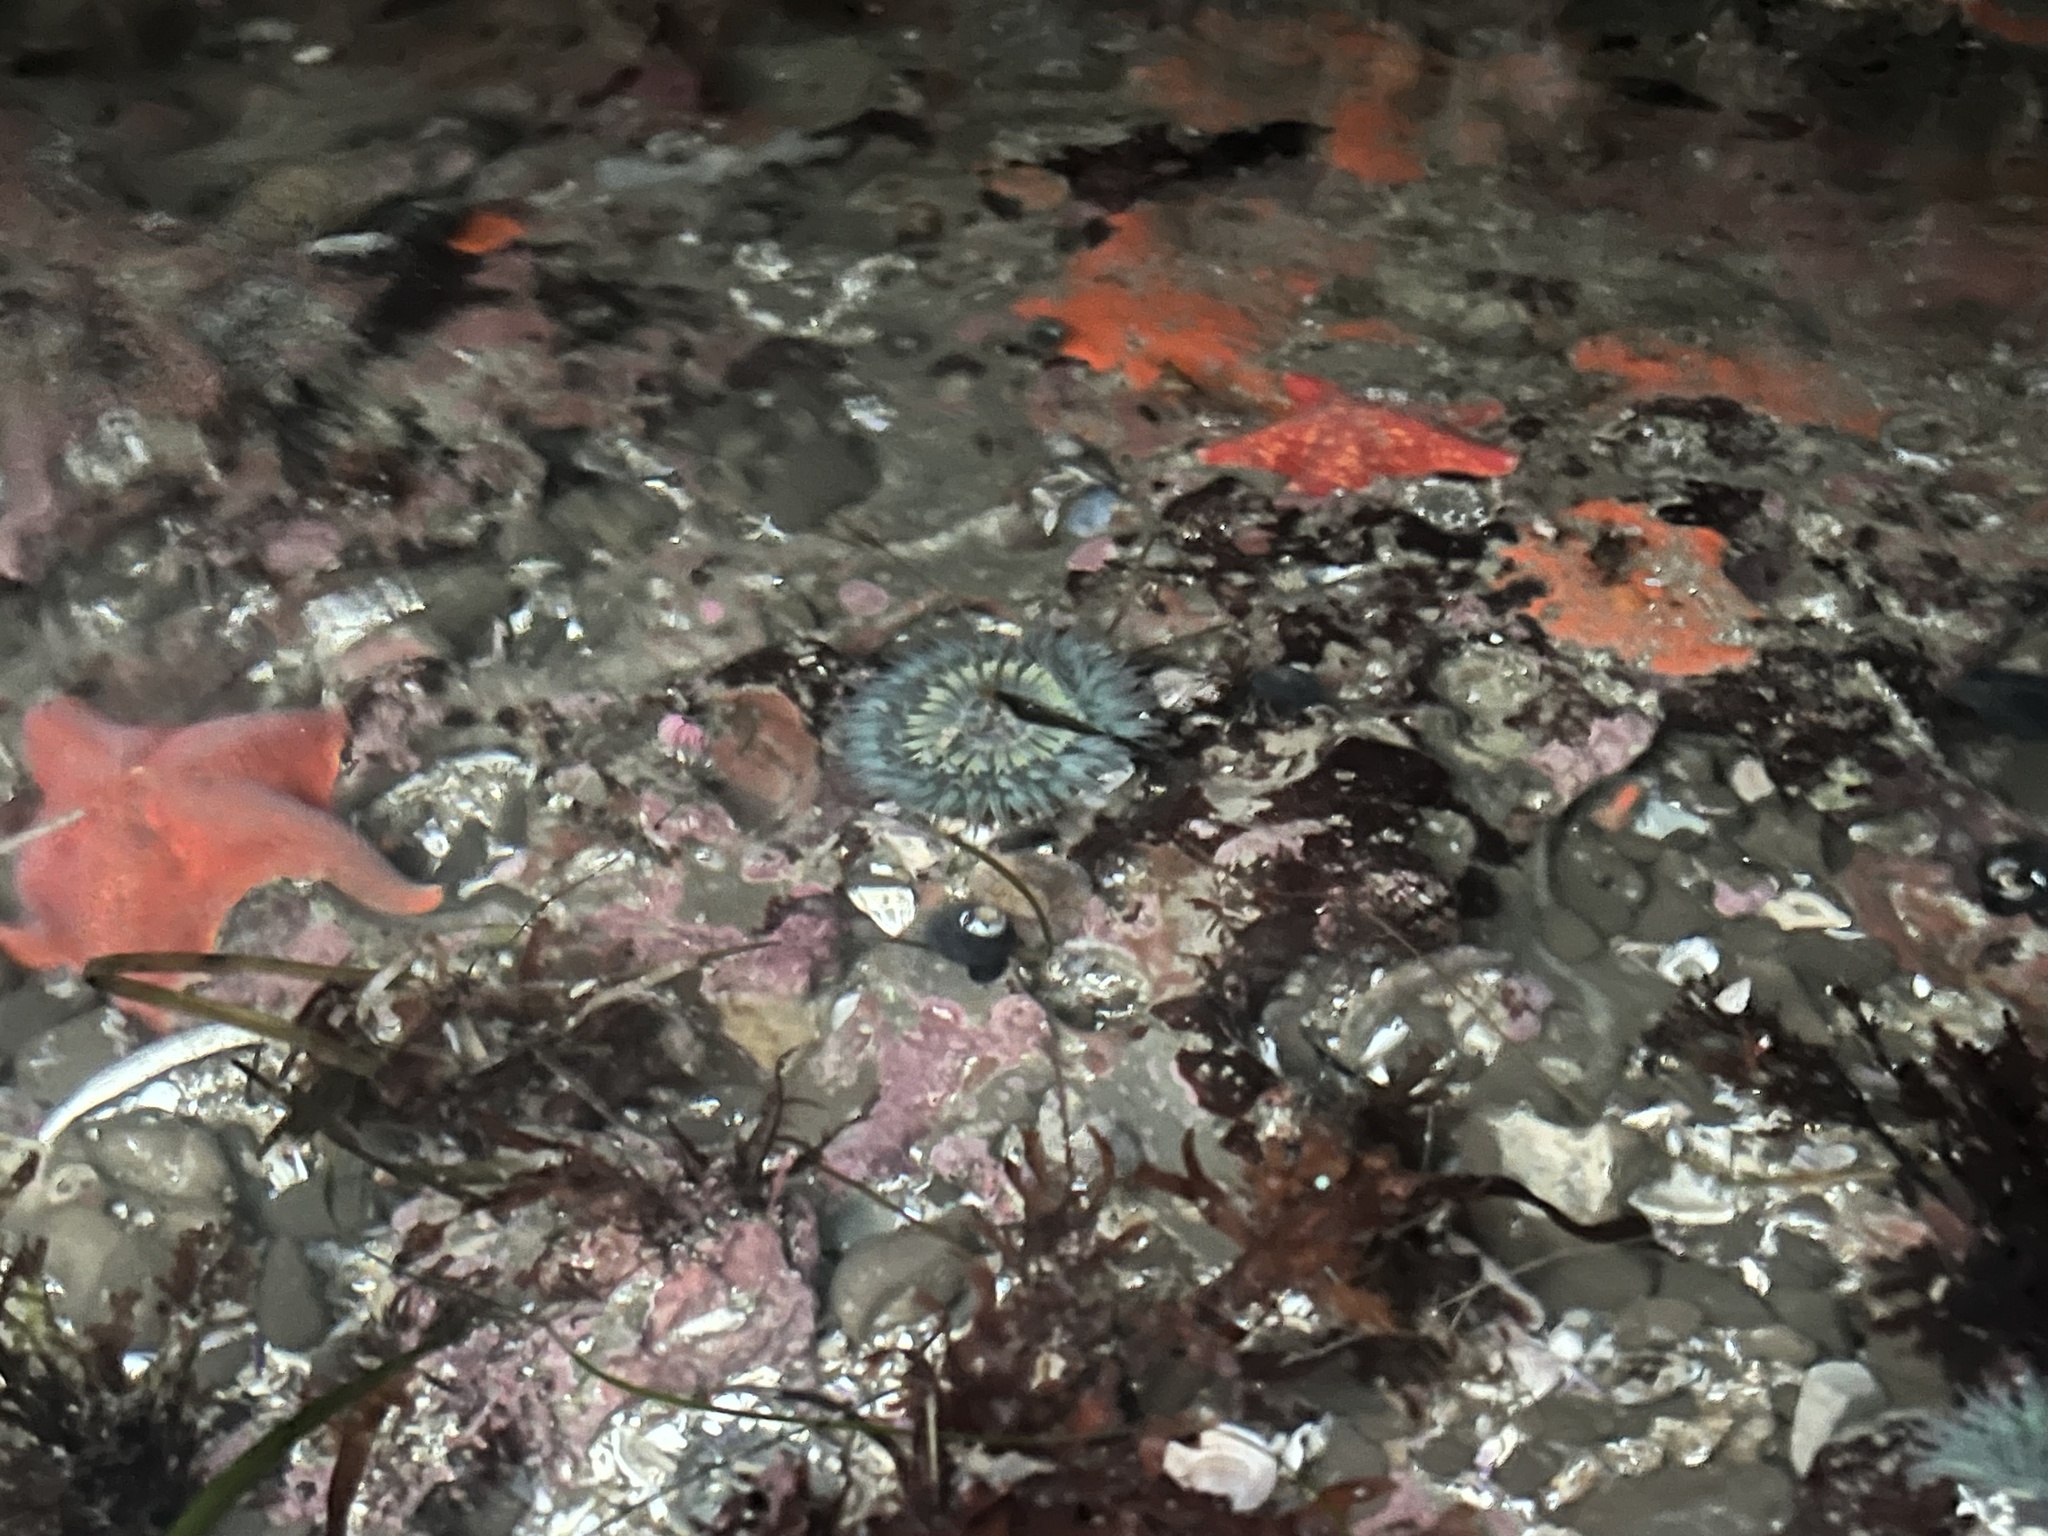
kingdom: Animalia
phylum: Echinodermata
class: Asteroidea
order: Valvatida
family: Asterinidae
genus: Patiria
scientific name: Patiria miniata
